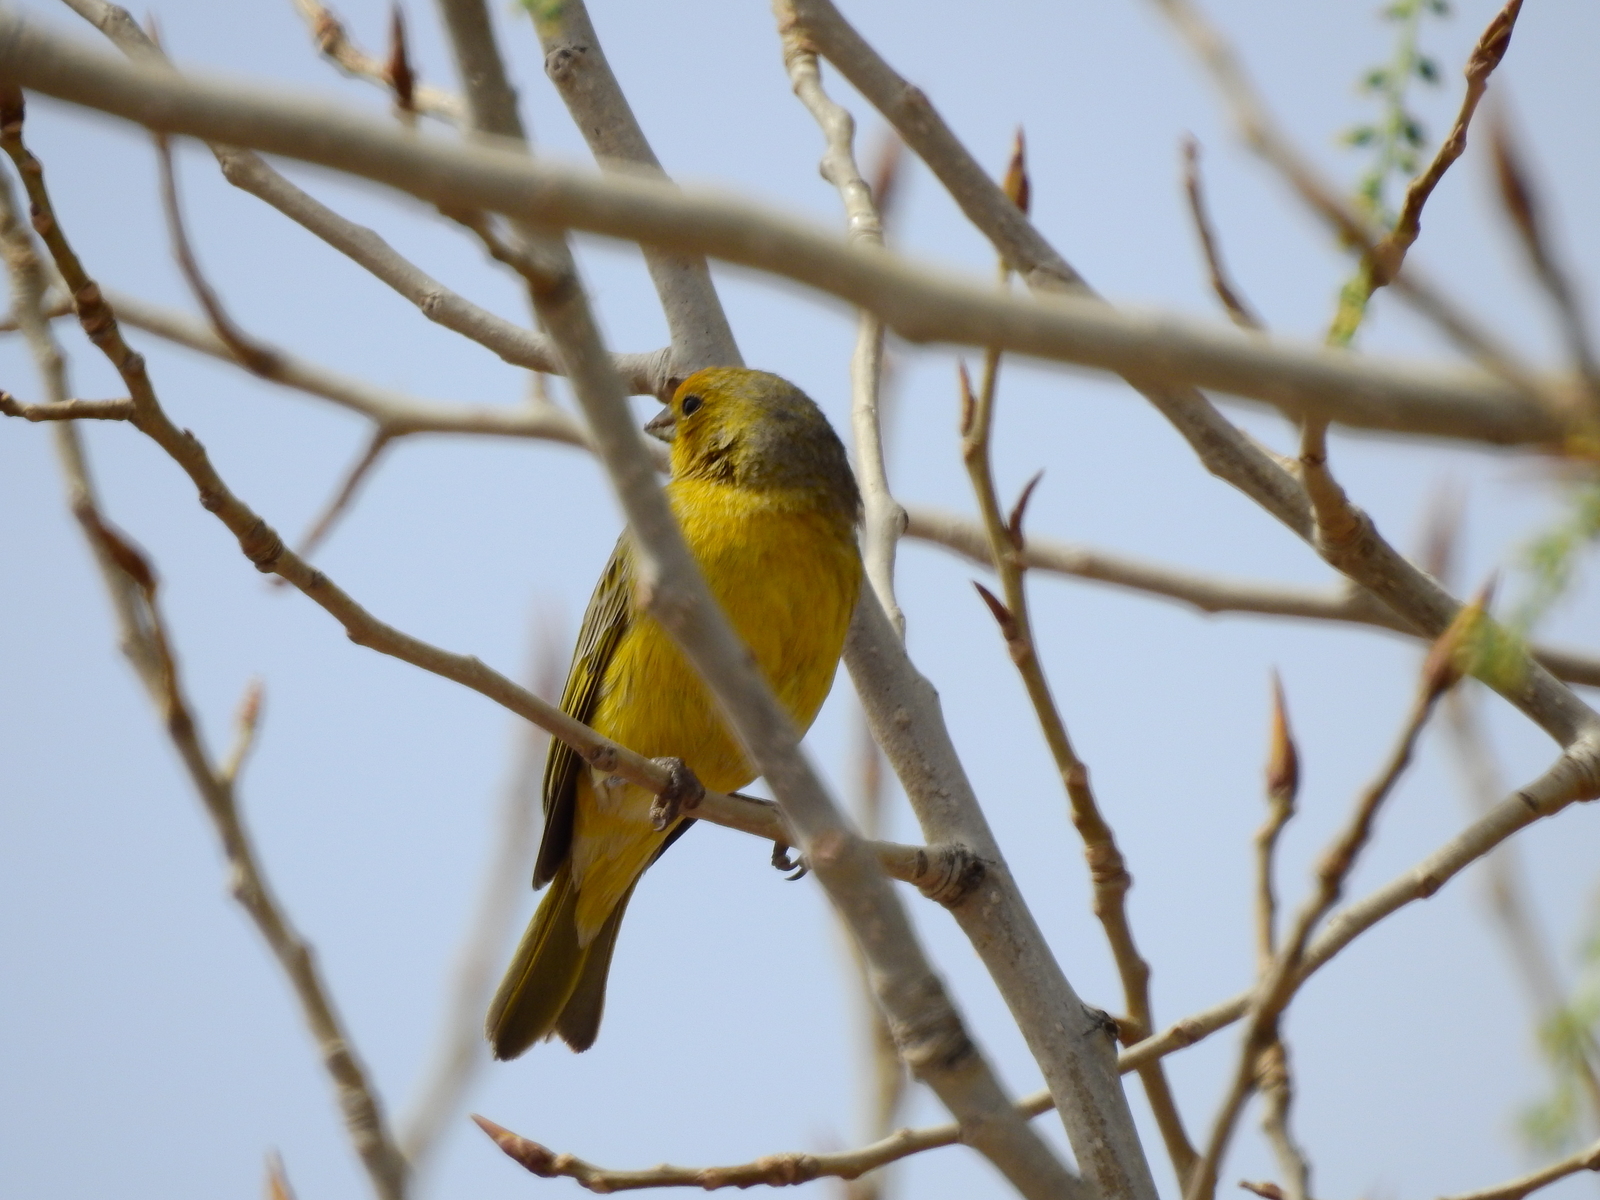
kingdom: Animalia
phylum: Chordata
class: Aves
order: Passeriformes
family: Thraupidae
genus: Sicalis
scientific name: Sicalis flaveola
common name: Saffron finch
